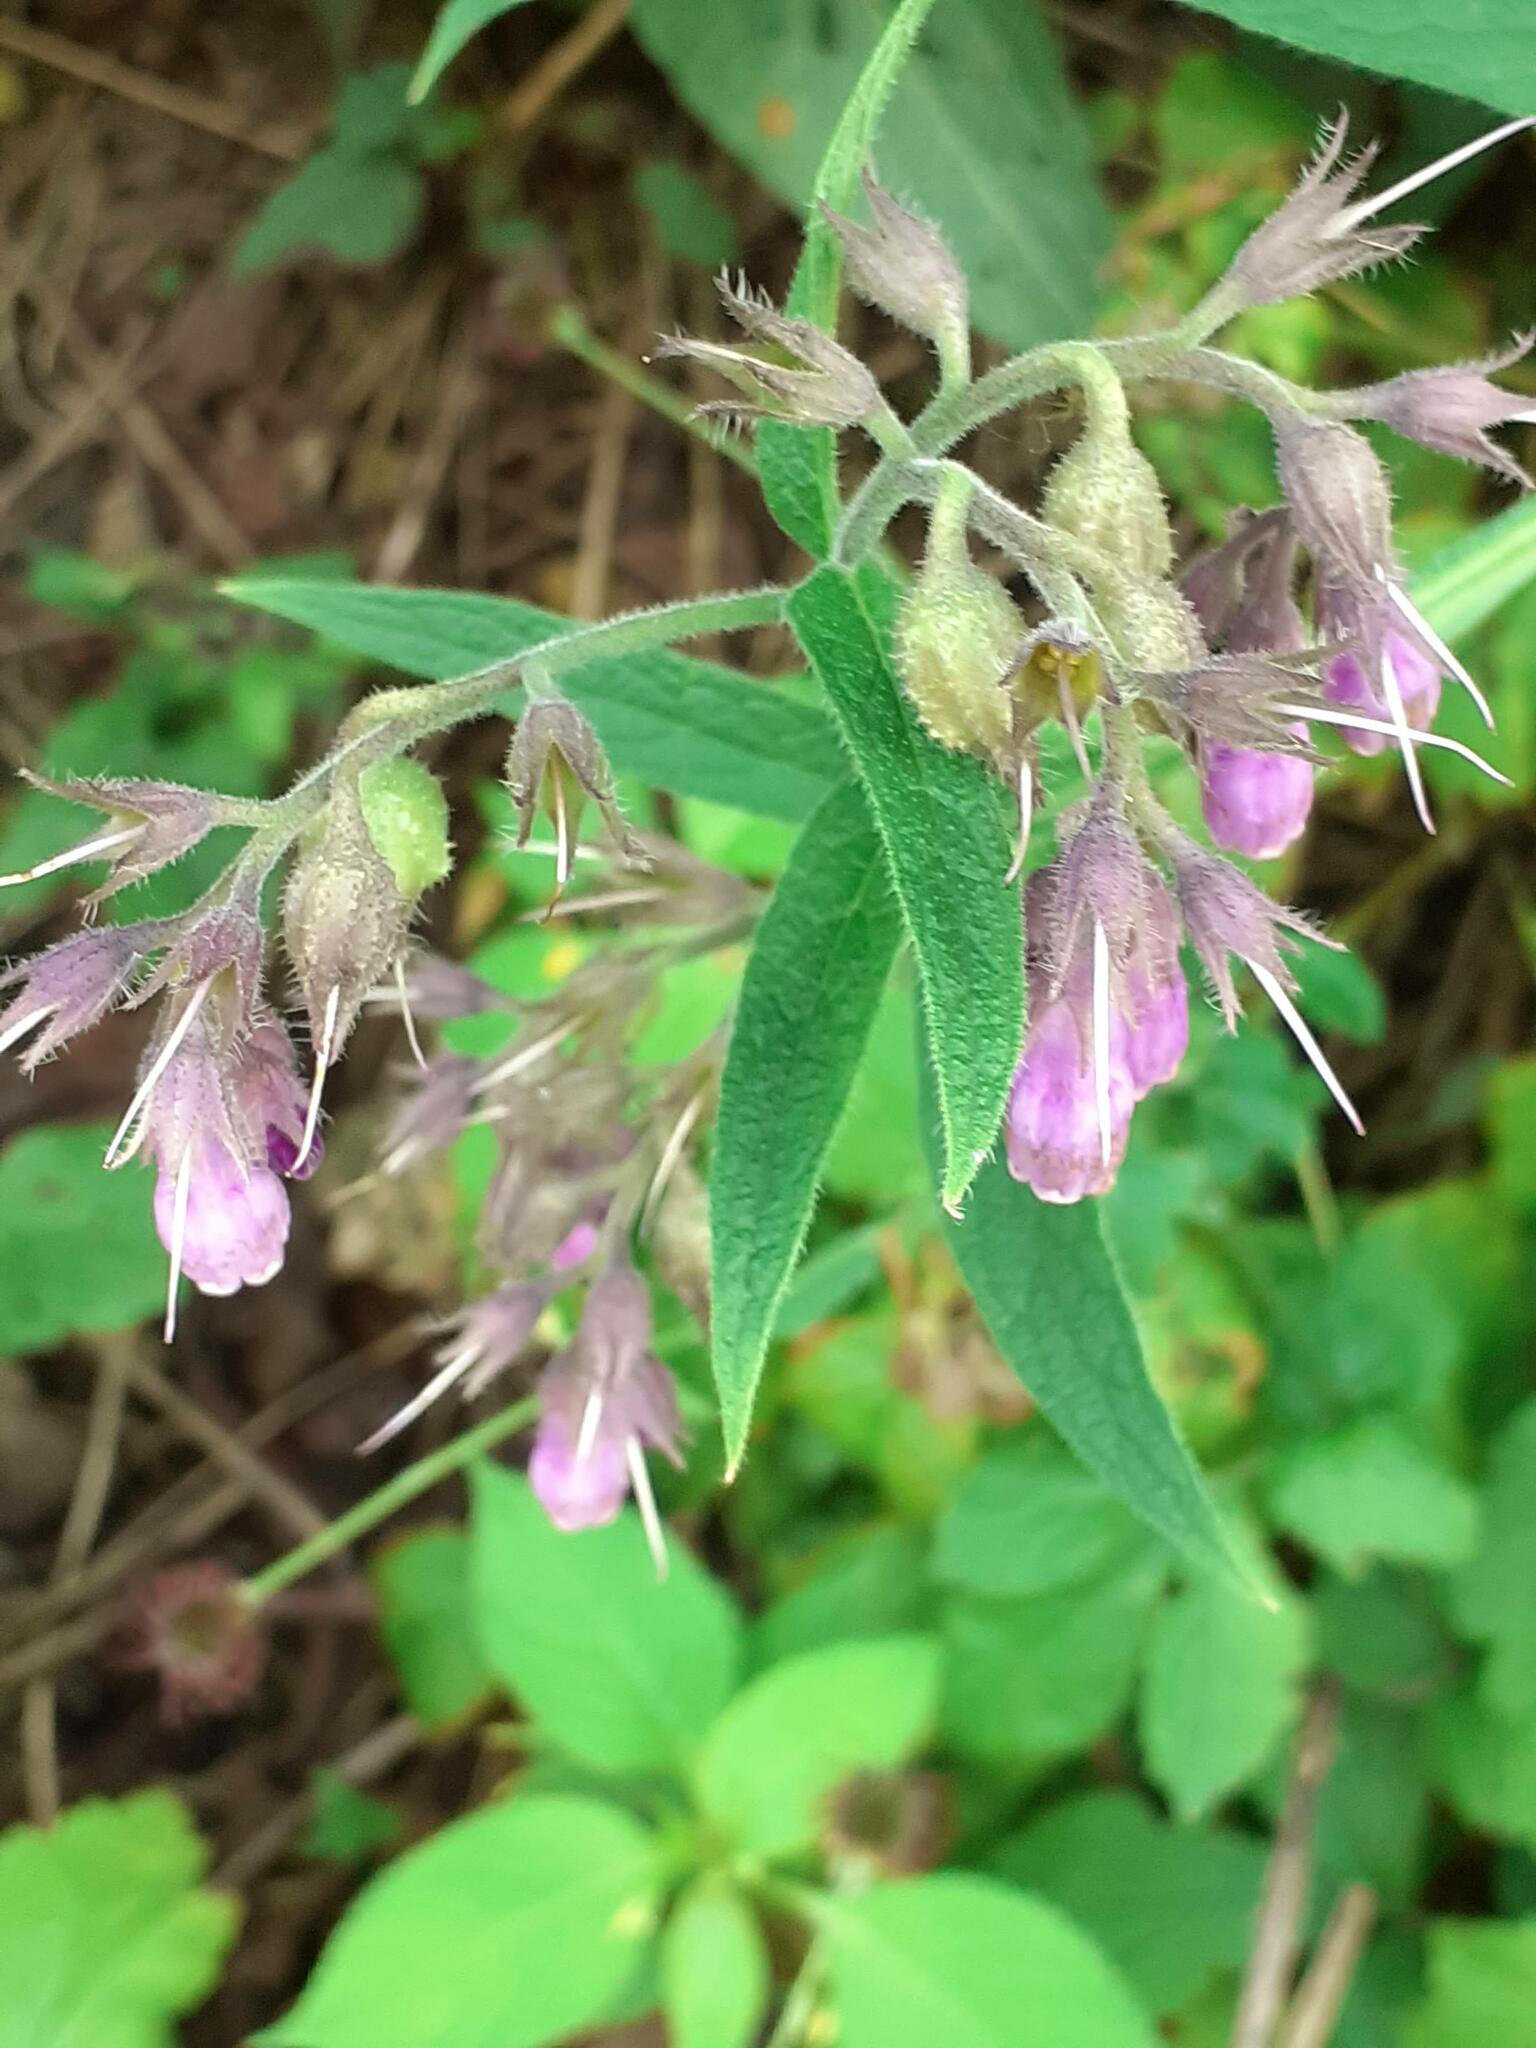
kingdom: Plantae
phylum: Tracheophyta
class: Magnoliopsida
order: Boraginales
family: Boraginaceae
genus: Symphytum
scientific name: Symphytum officinale
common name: Common comfrey
